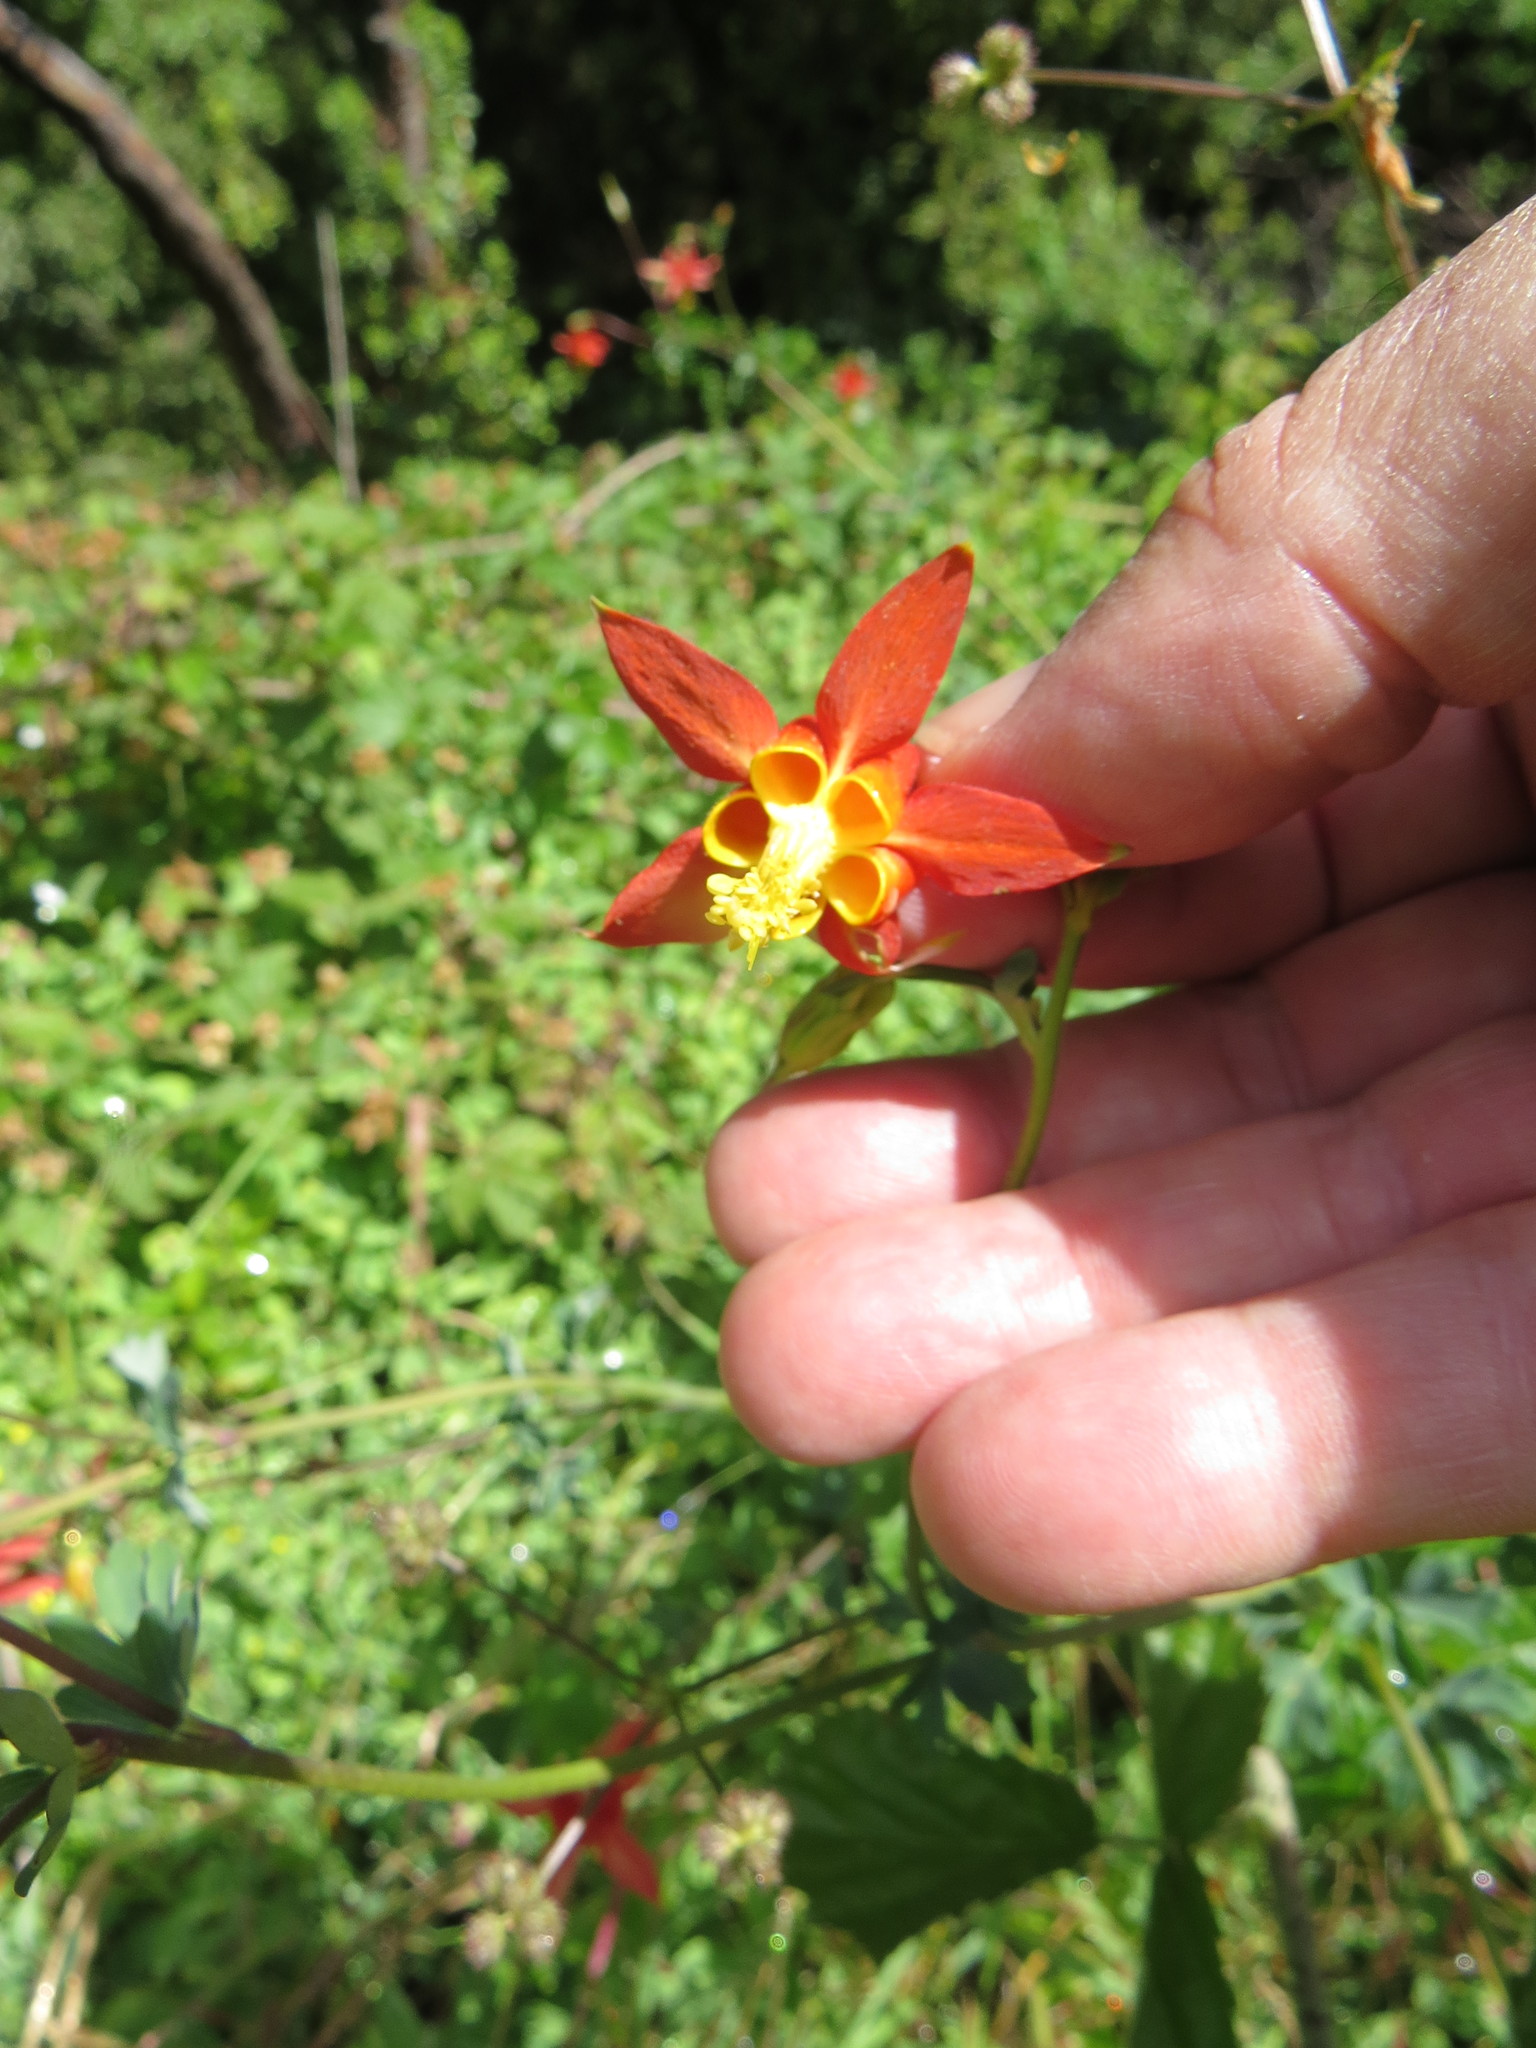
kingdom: Plantae
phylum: Tracheophyta
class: Magnoliopsida
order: Ranunculales
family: Ranunculaceae
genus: Aquilegia
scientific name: Aquilegia formosa
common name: Sitka columbine
